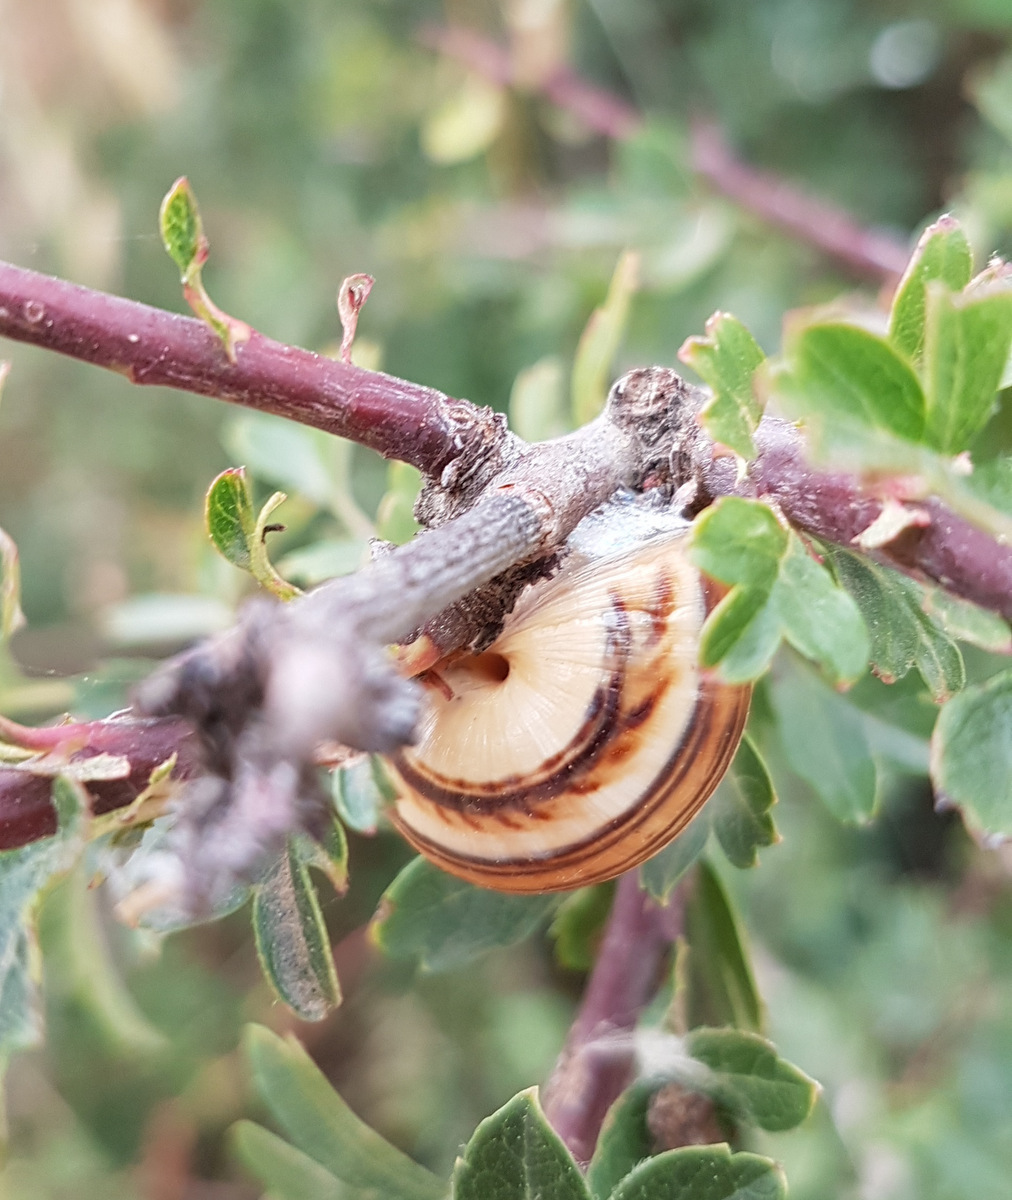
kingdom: Animalia
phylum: Mollusca
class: Gastropoda
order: Stylommatophora
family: Helicidae
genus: Theba
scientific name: Theba pisana
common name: White snail
